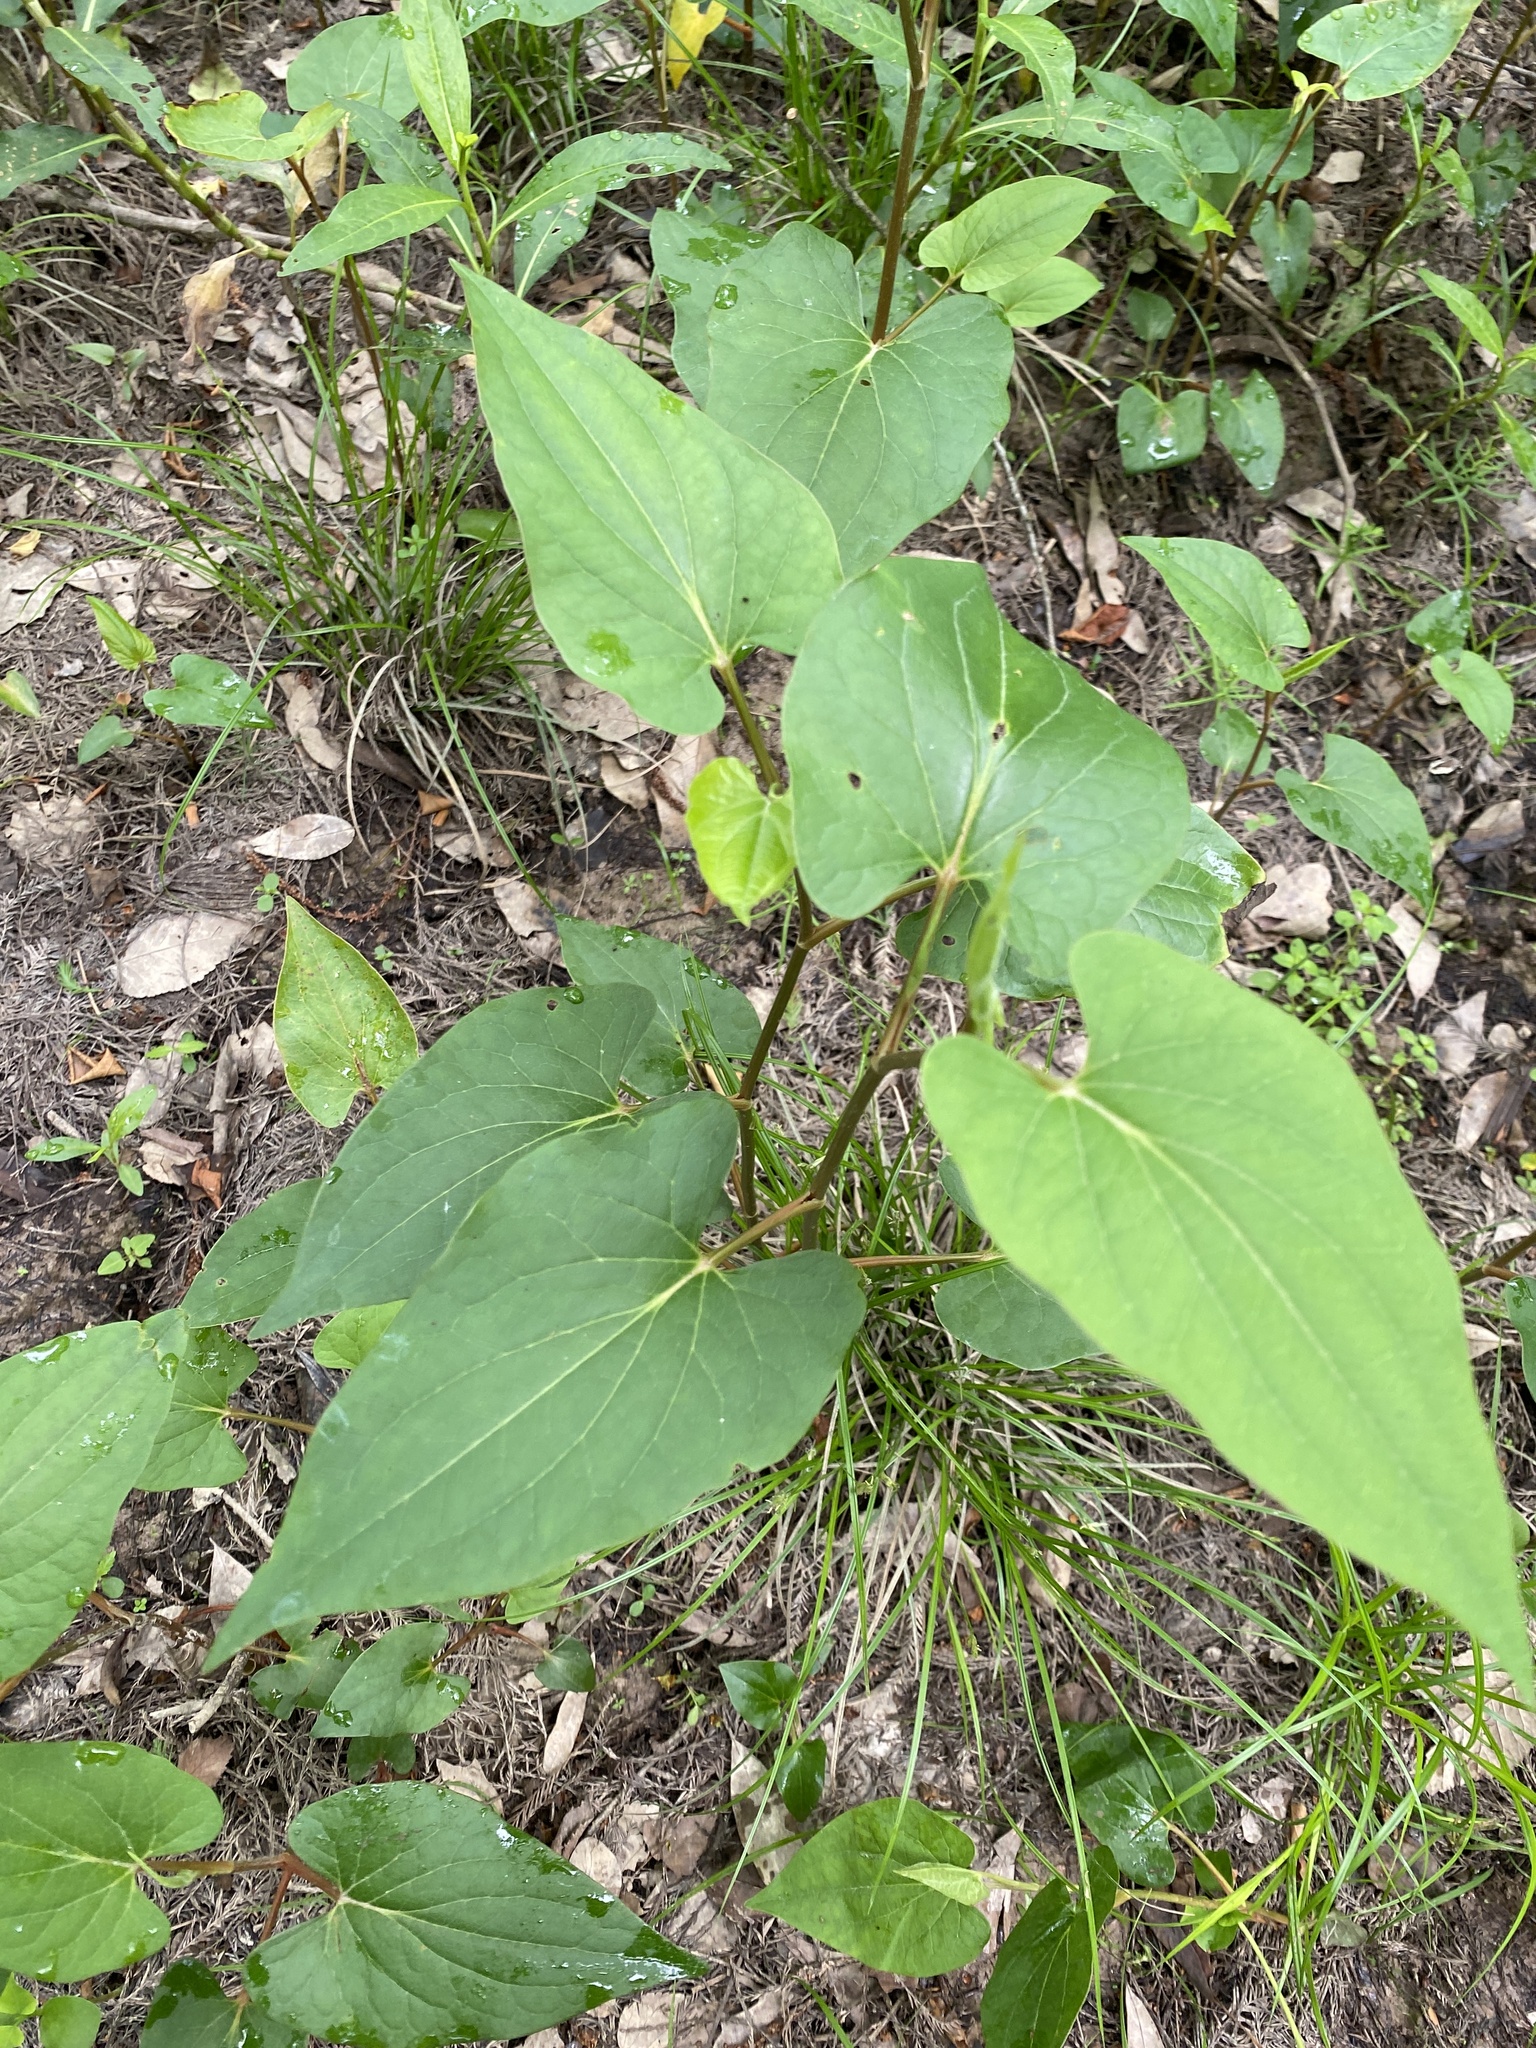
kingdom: Plantae
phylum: Tracheophyta
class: Magnoliopsida
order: Piperales
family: Saururaceae
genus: Saururus
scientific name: Saururus cernuus
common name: Lizard's-tail
